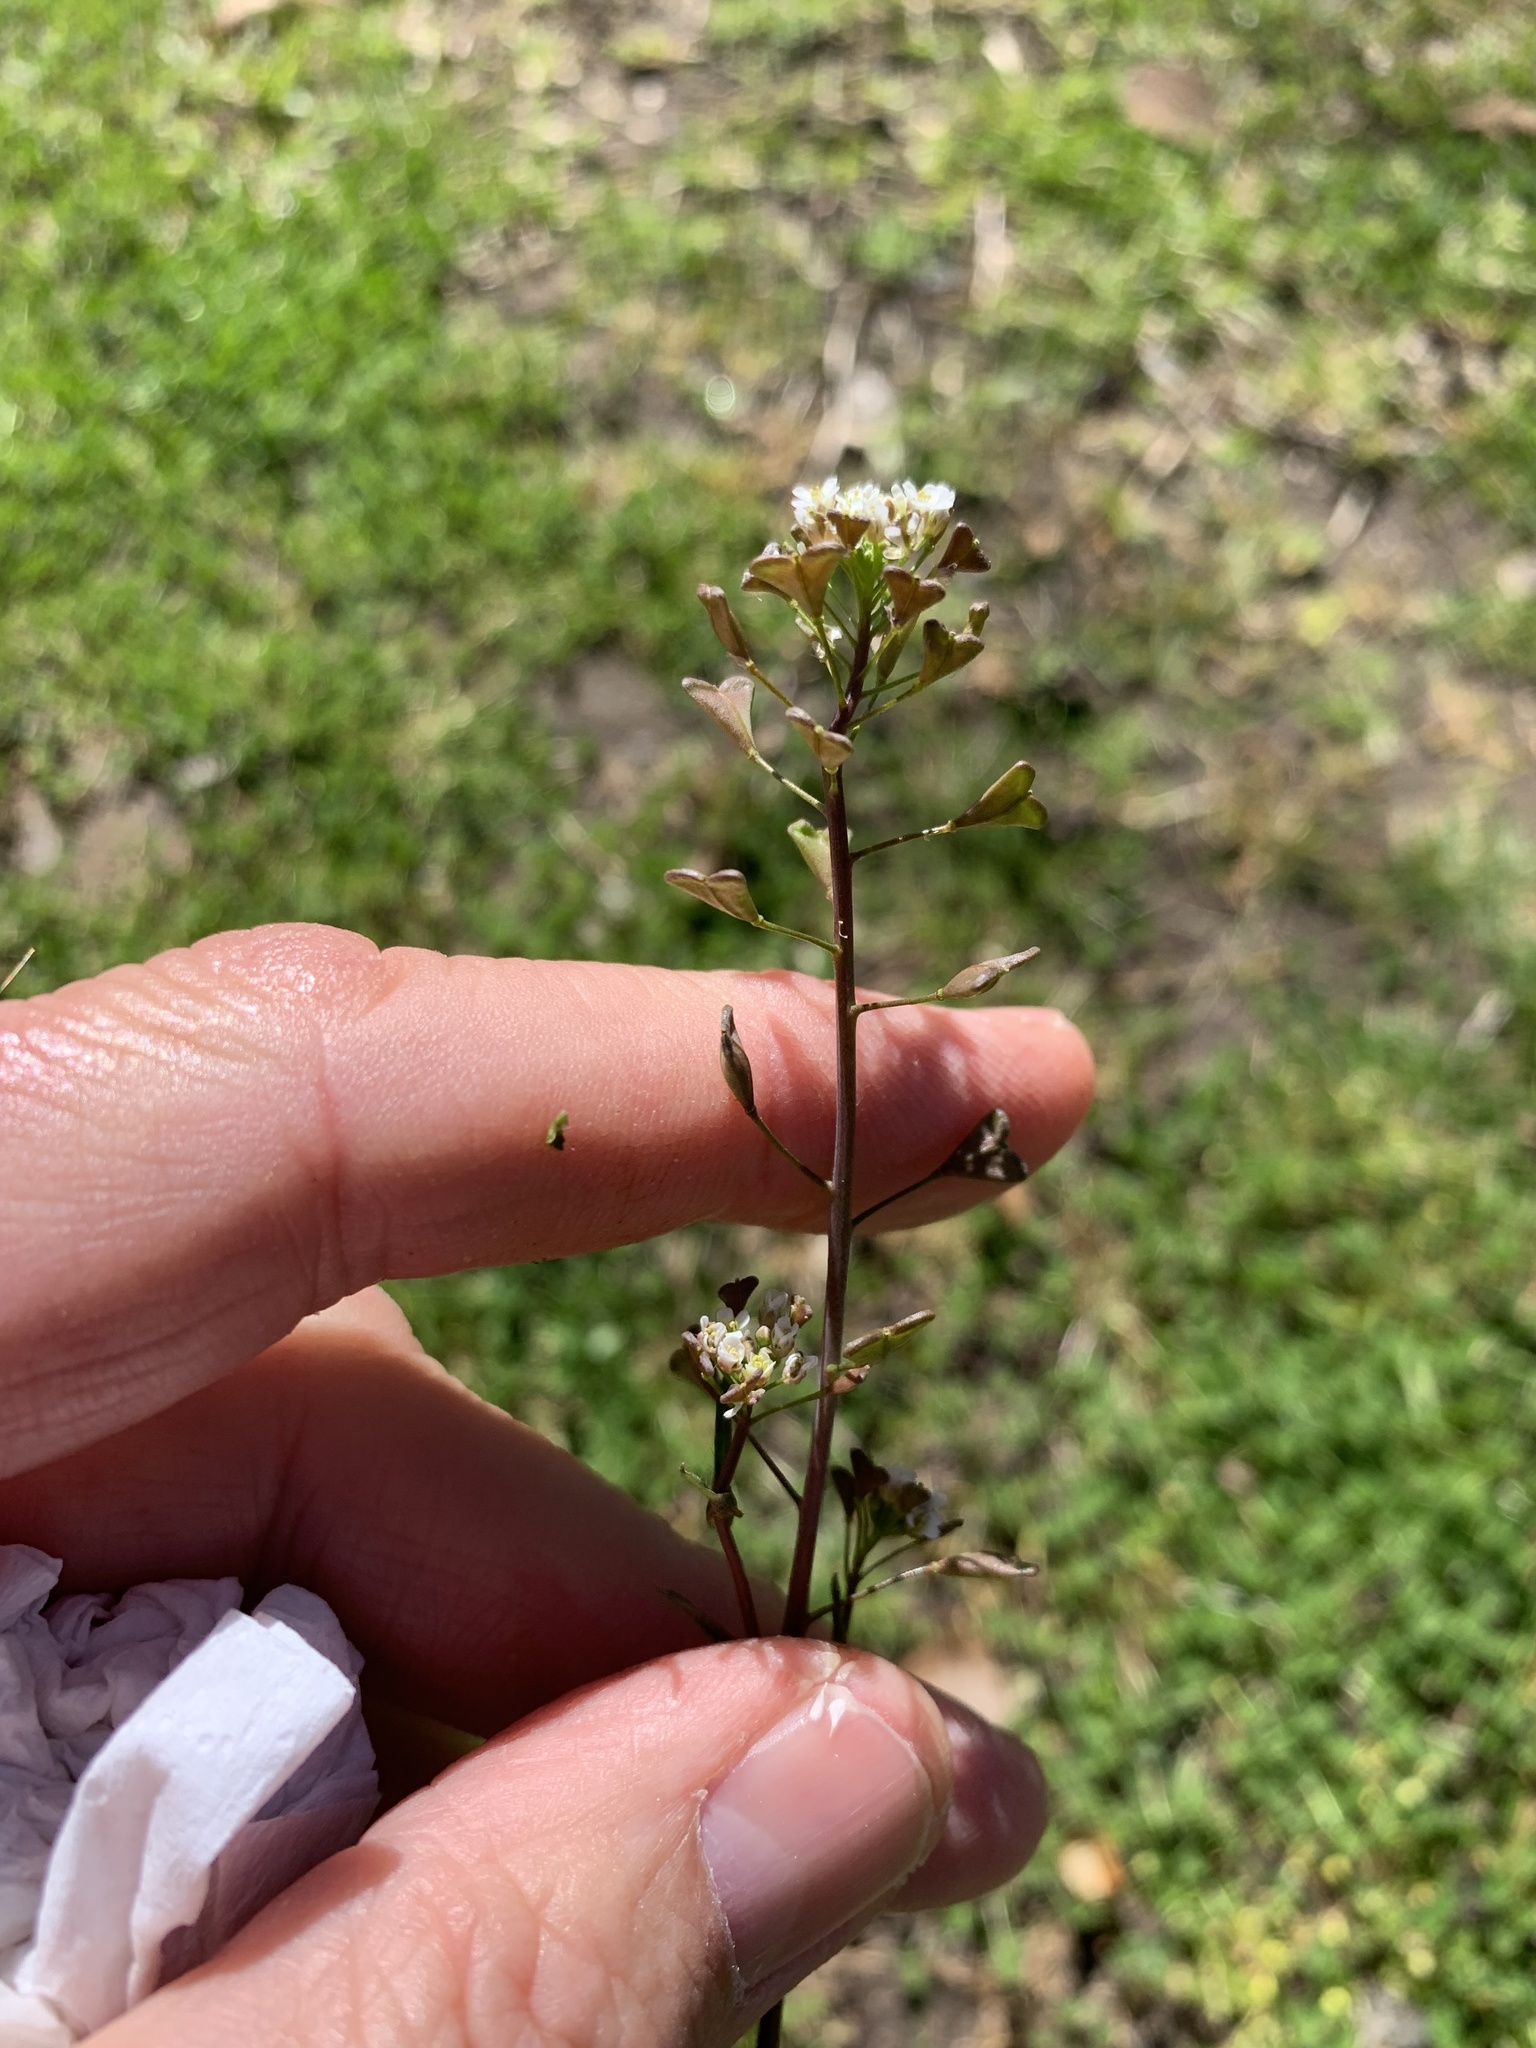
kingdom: Plantae
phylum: Tracheophyta
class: Magnoliopsida
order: Brassicales
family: Brassicaceae
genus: Capsella
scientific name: Capsella bursa-pastoris
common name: Shepherd's purse
